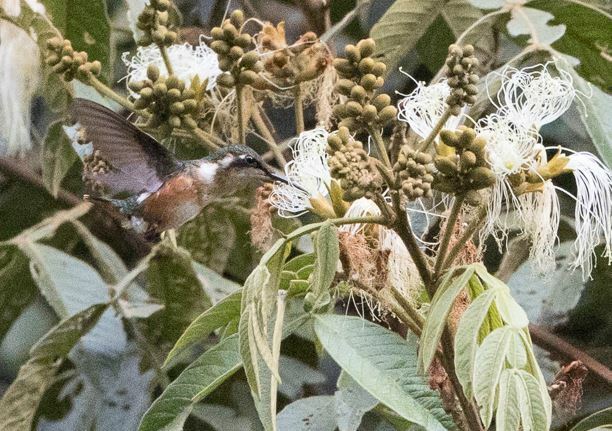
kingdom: Animalia
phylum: Chordata
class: Aves
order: Apodiformes
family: Trochilidae
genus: Chaetocercus
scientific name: Chaetocercus mulsant
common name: White-bellied woodstar
